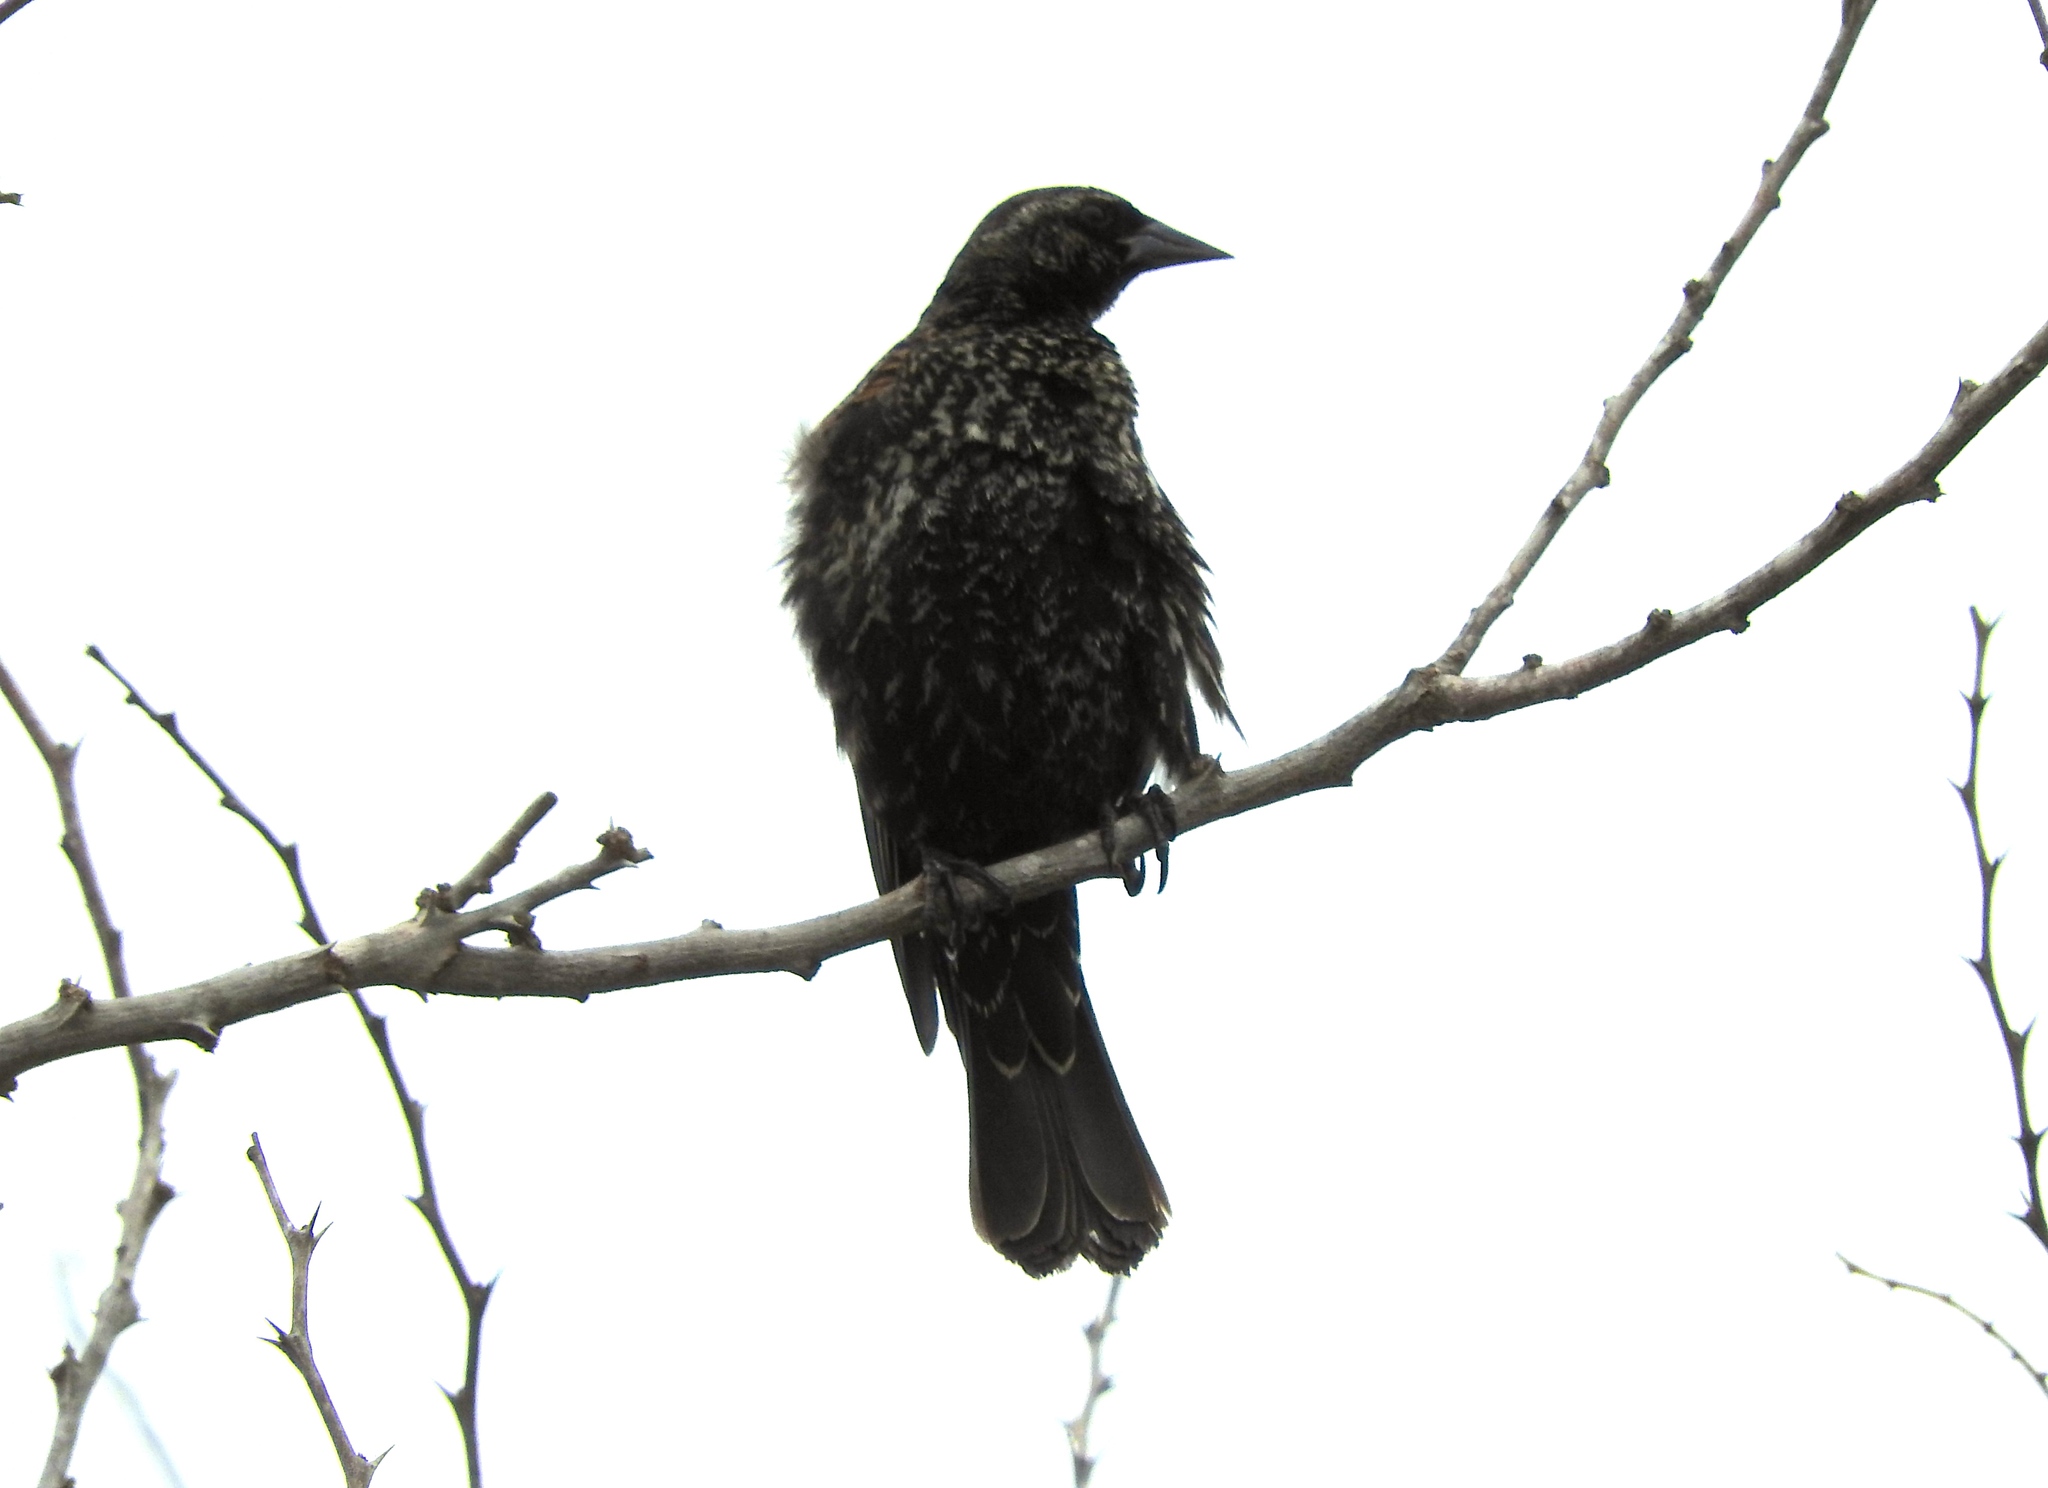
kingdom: Animalia
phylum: Chordata
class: Aves
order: Passeriformes
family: Icteridae
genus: Agelaius
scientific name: Agelaius phoeniceus
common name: Red-winged blackbird
